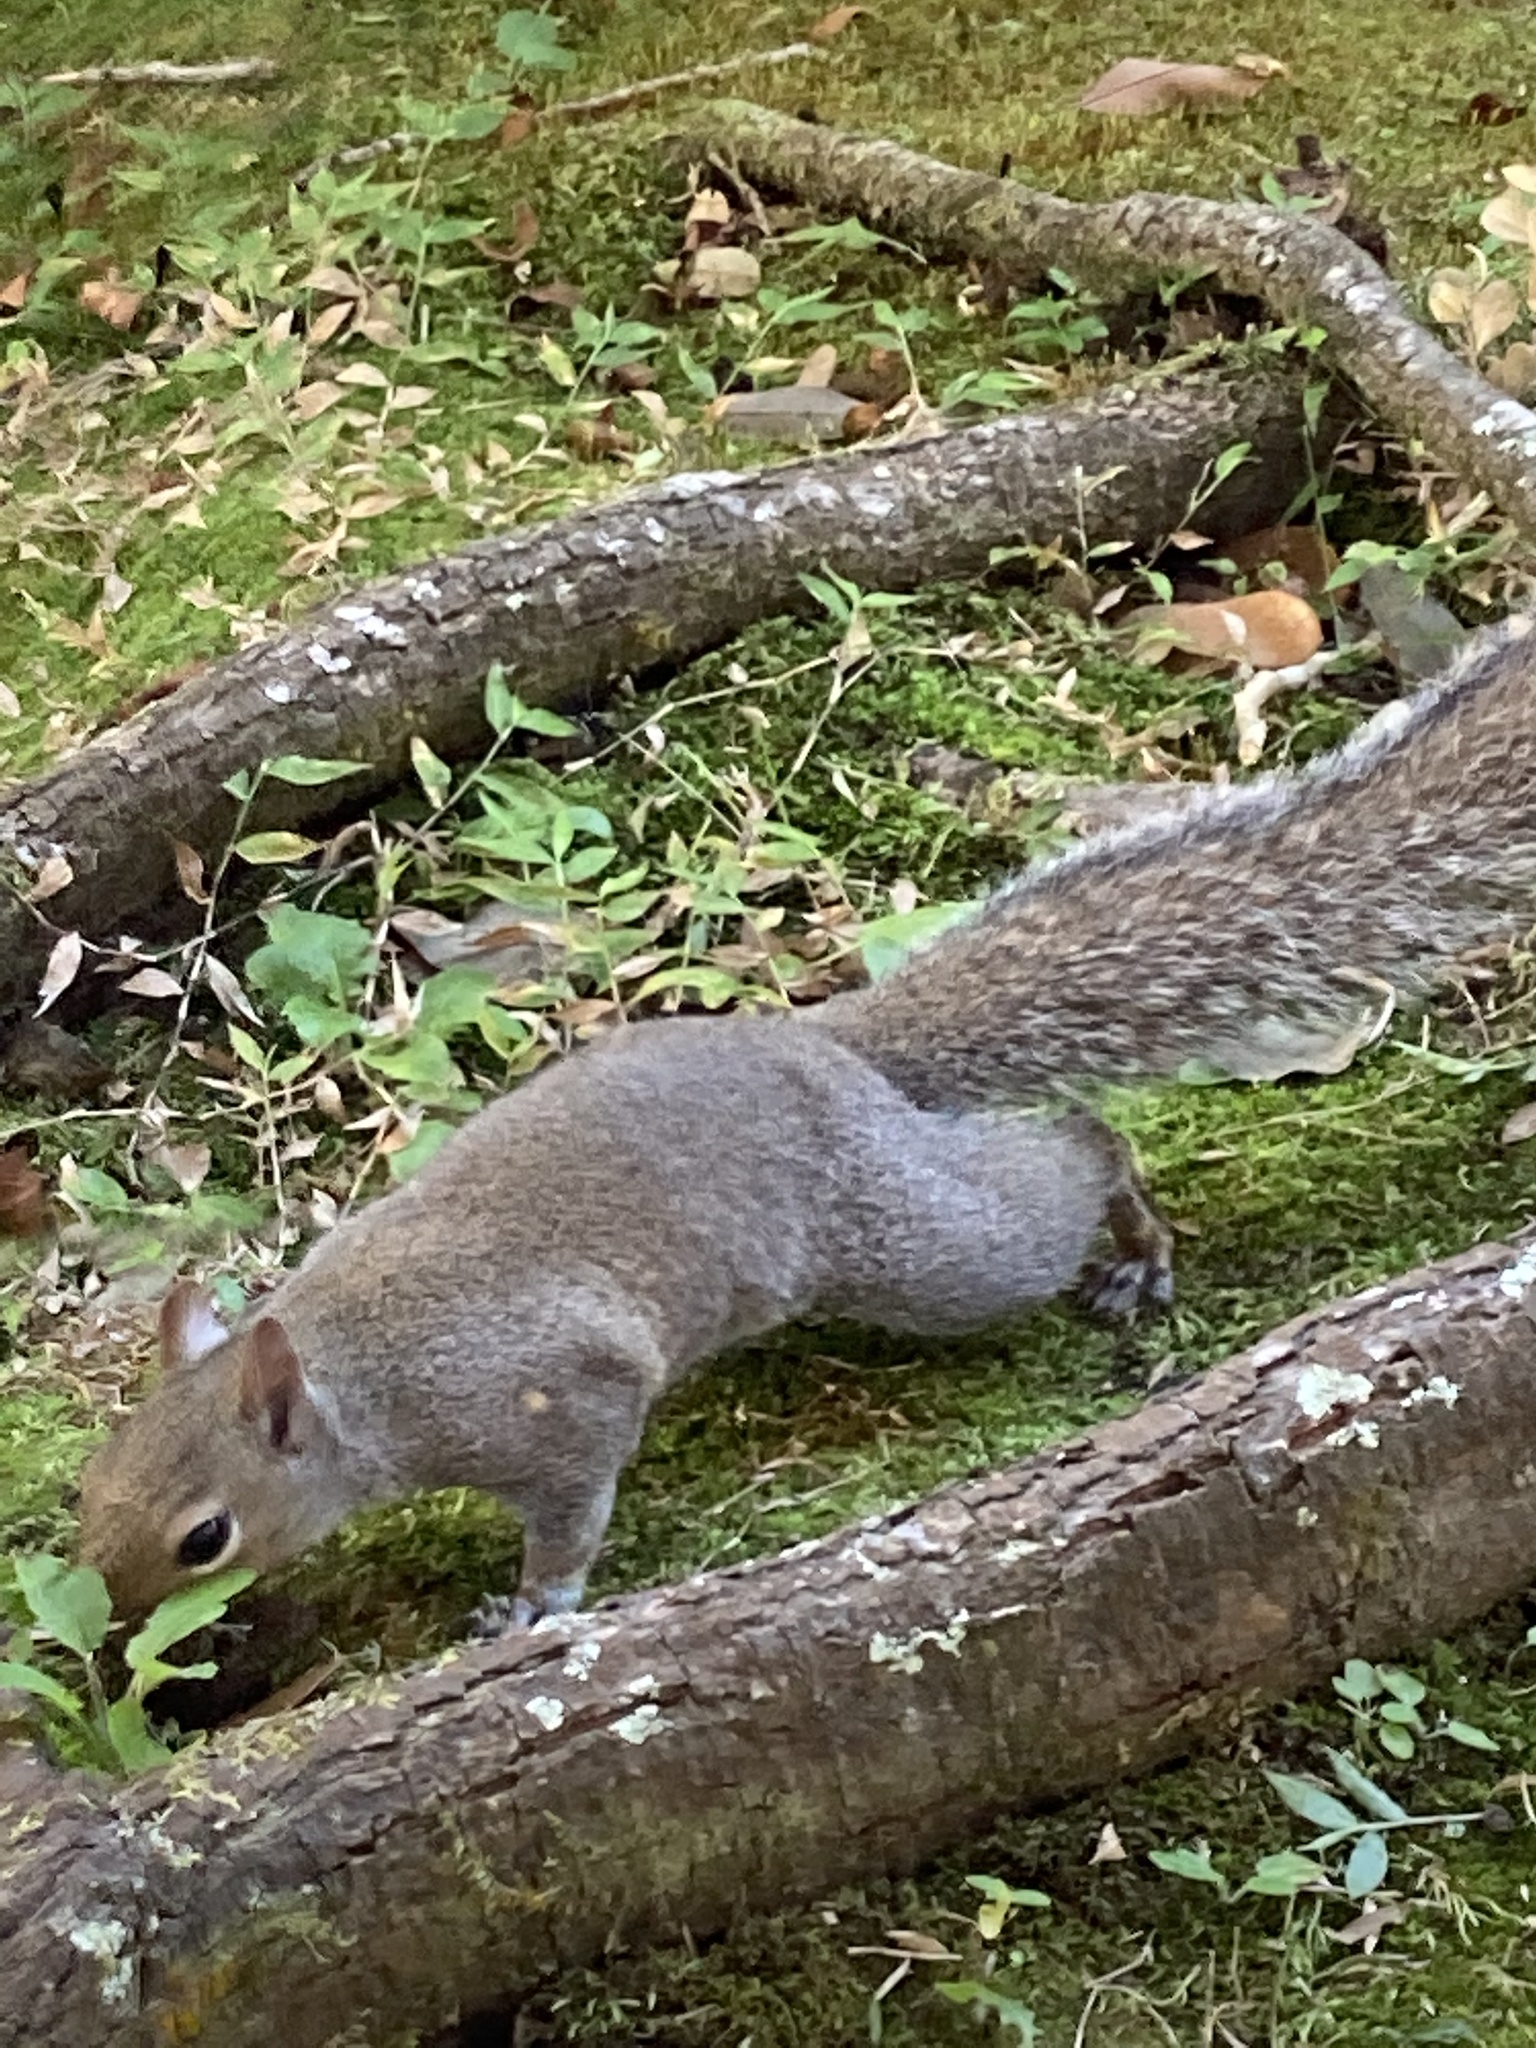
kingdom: Animalia
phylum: Chordata
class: Mammalia
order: Rodentia
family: Sciuridae
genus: Sciurus
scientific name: Sciurus carolinensis
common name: Eastern gray squirrel
